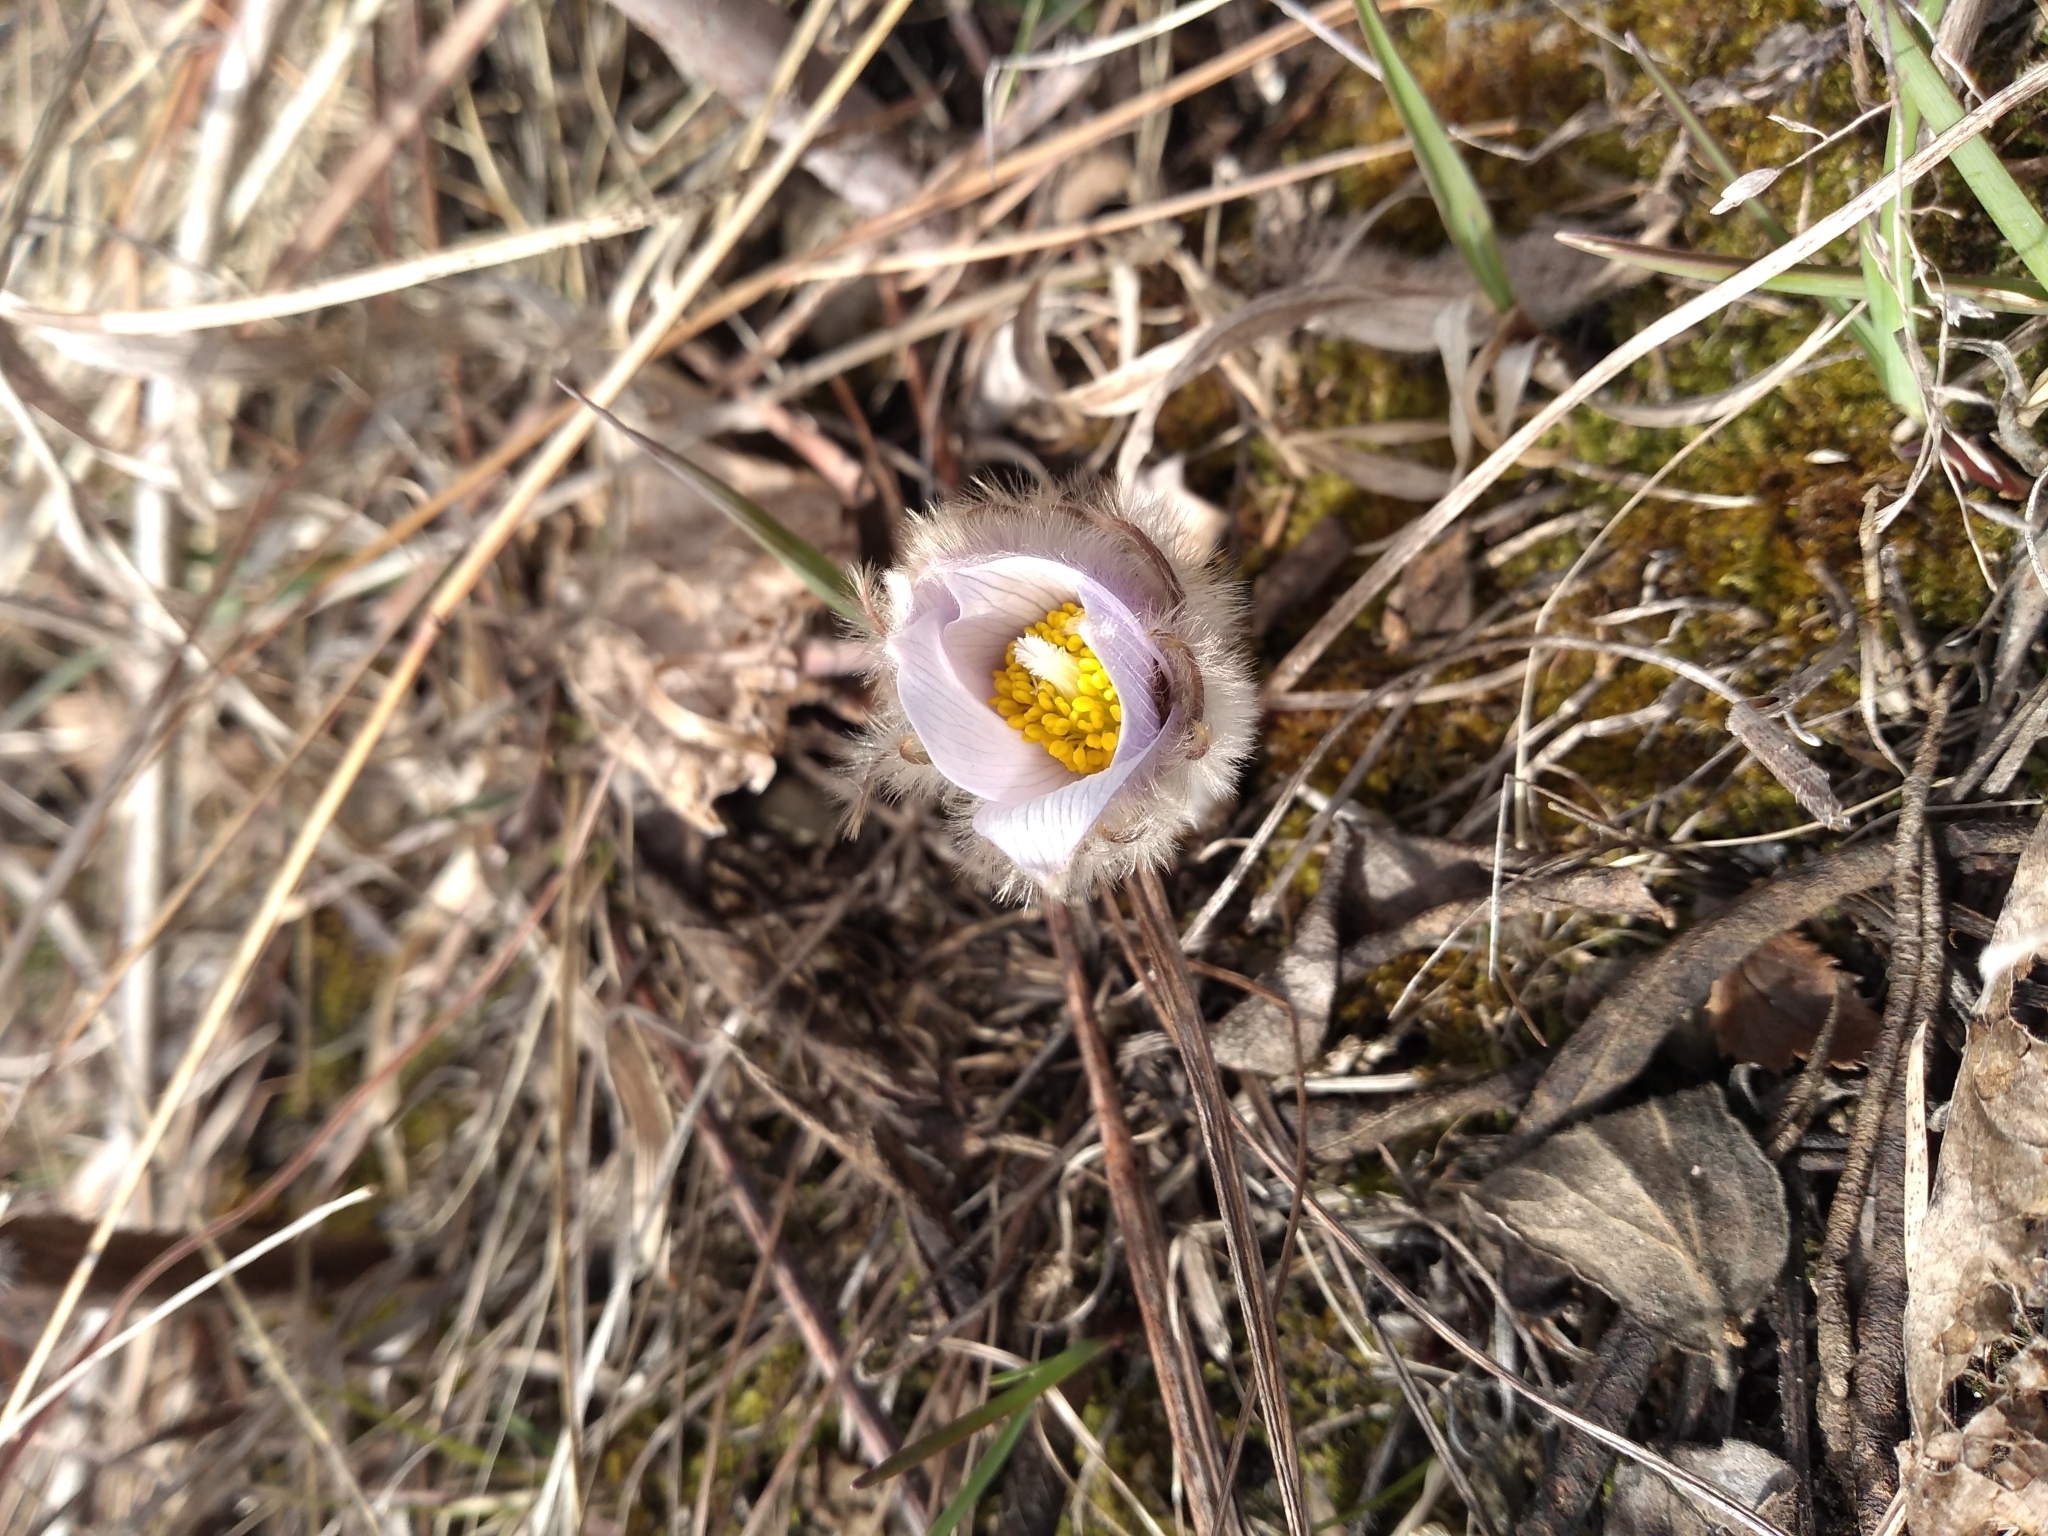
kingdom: Plantae
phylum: Tracheophyta
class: Magnoliopsida
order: Ranunculales
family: Ranunculaceae
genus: Pulsatilla
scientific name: Pulsatilla nuttalliana
